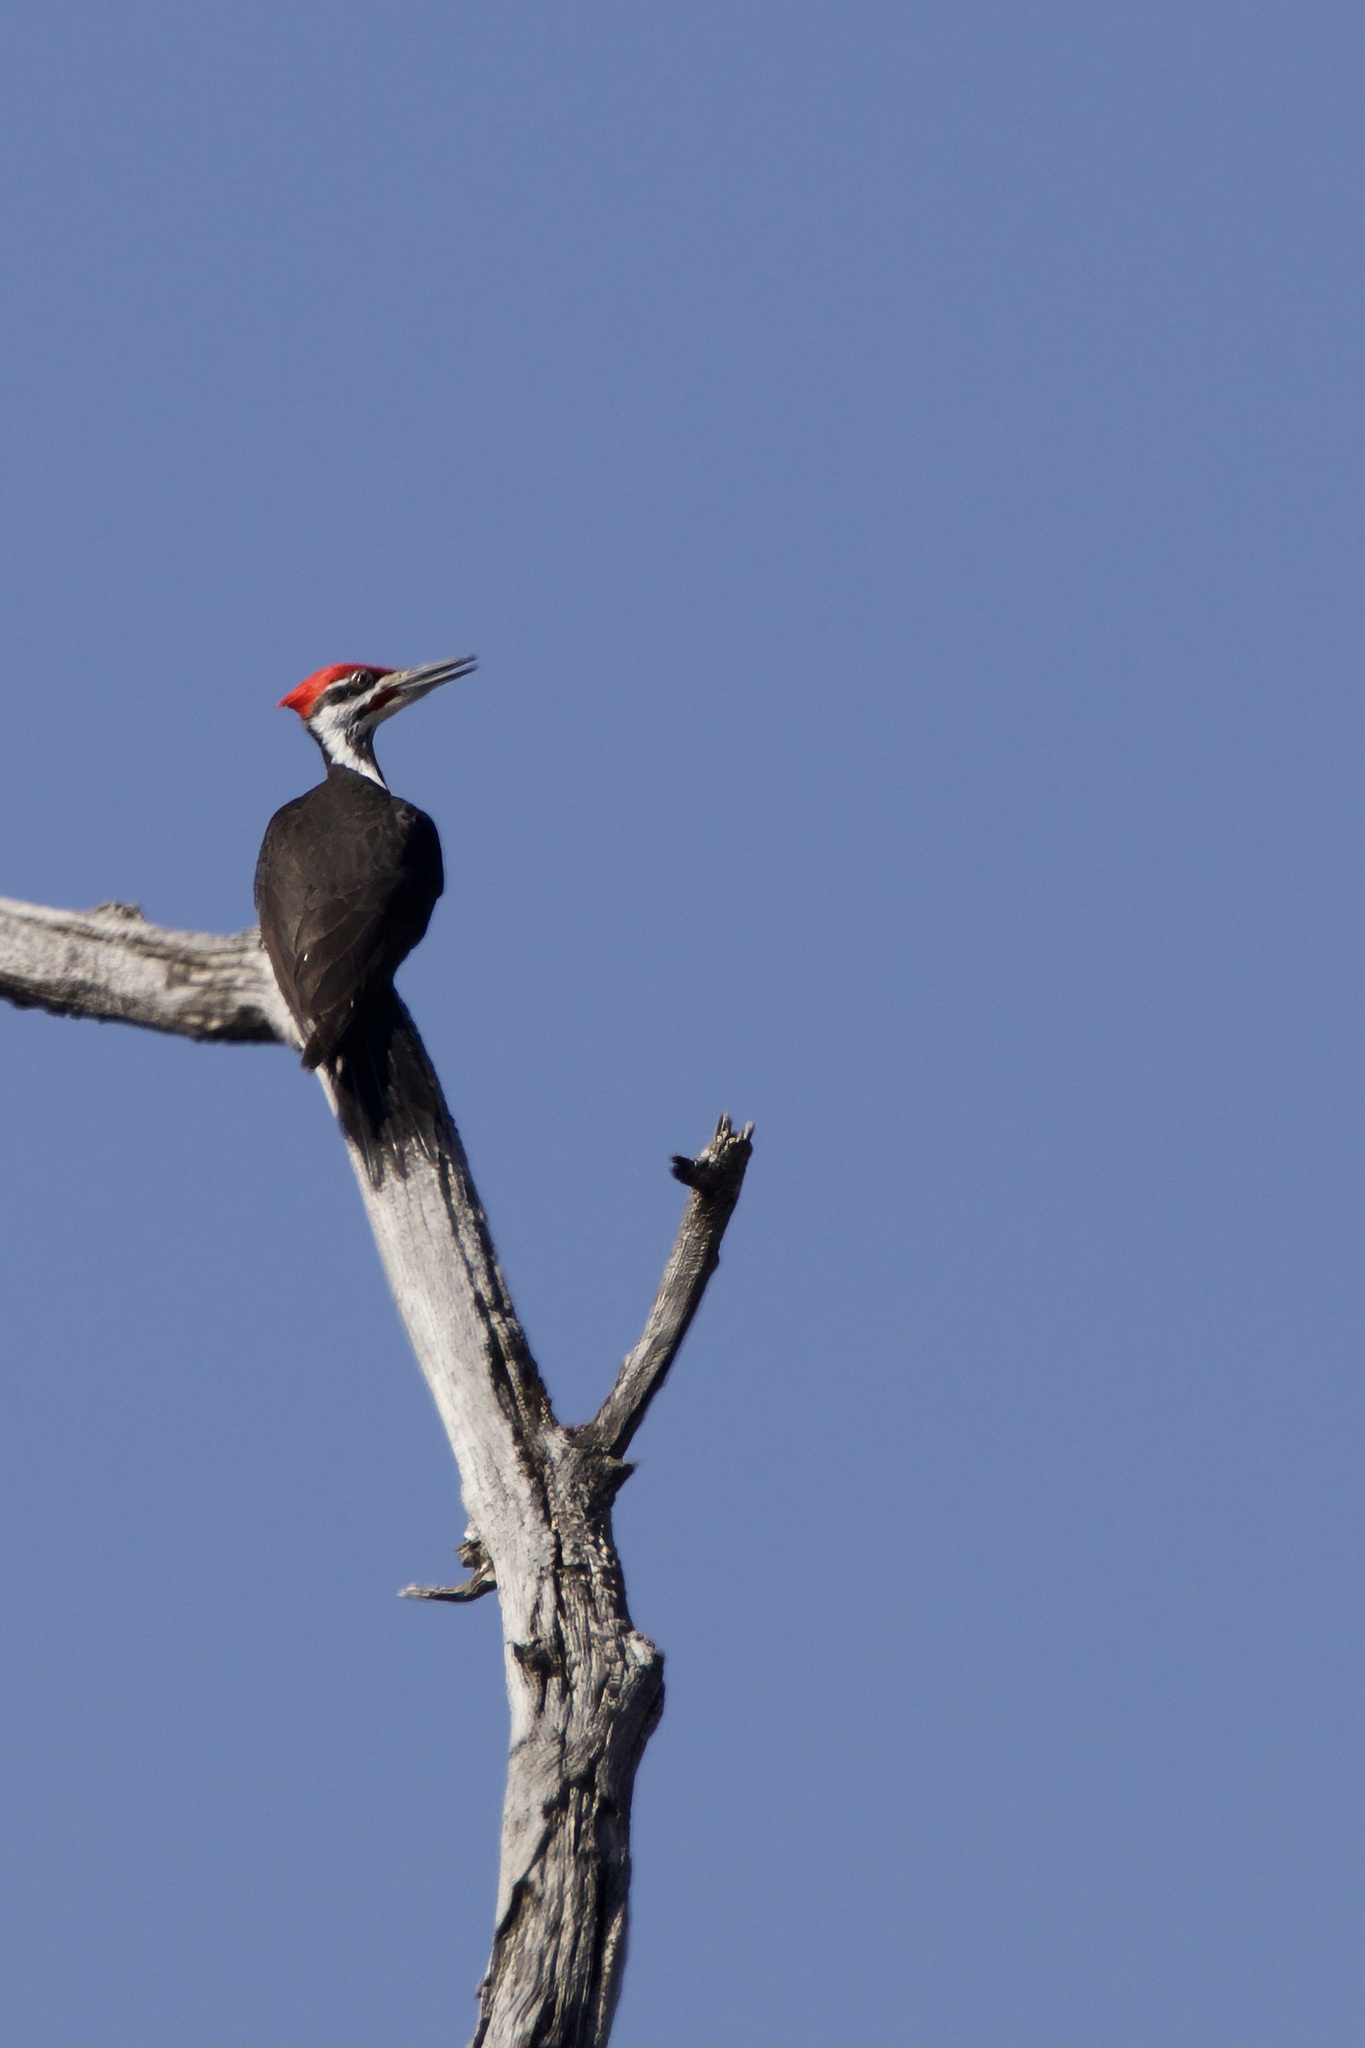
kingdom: Animalia
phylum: Chordata
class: Aves
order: Piciformes
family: Picidae
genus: Dryocopus
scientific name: Dryocopus pileatus
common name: Pileated woodpecker
